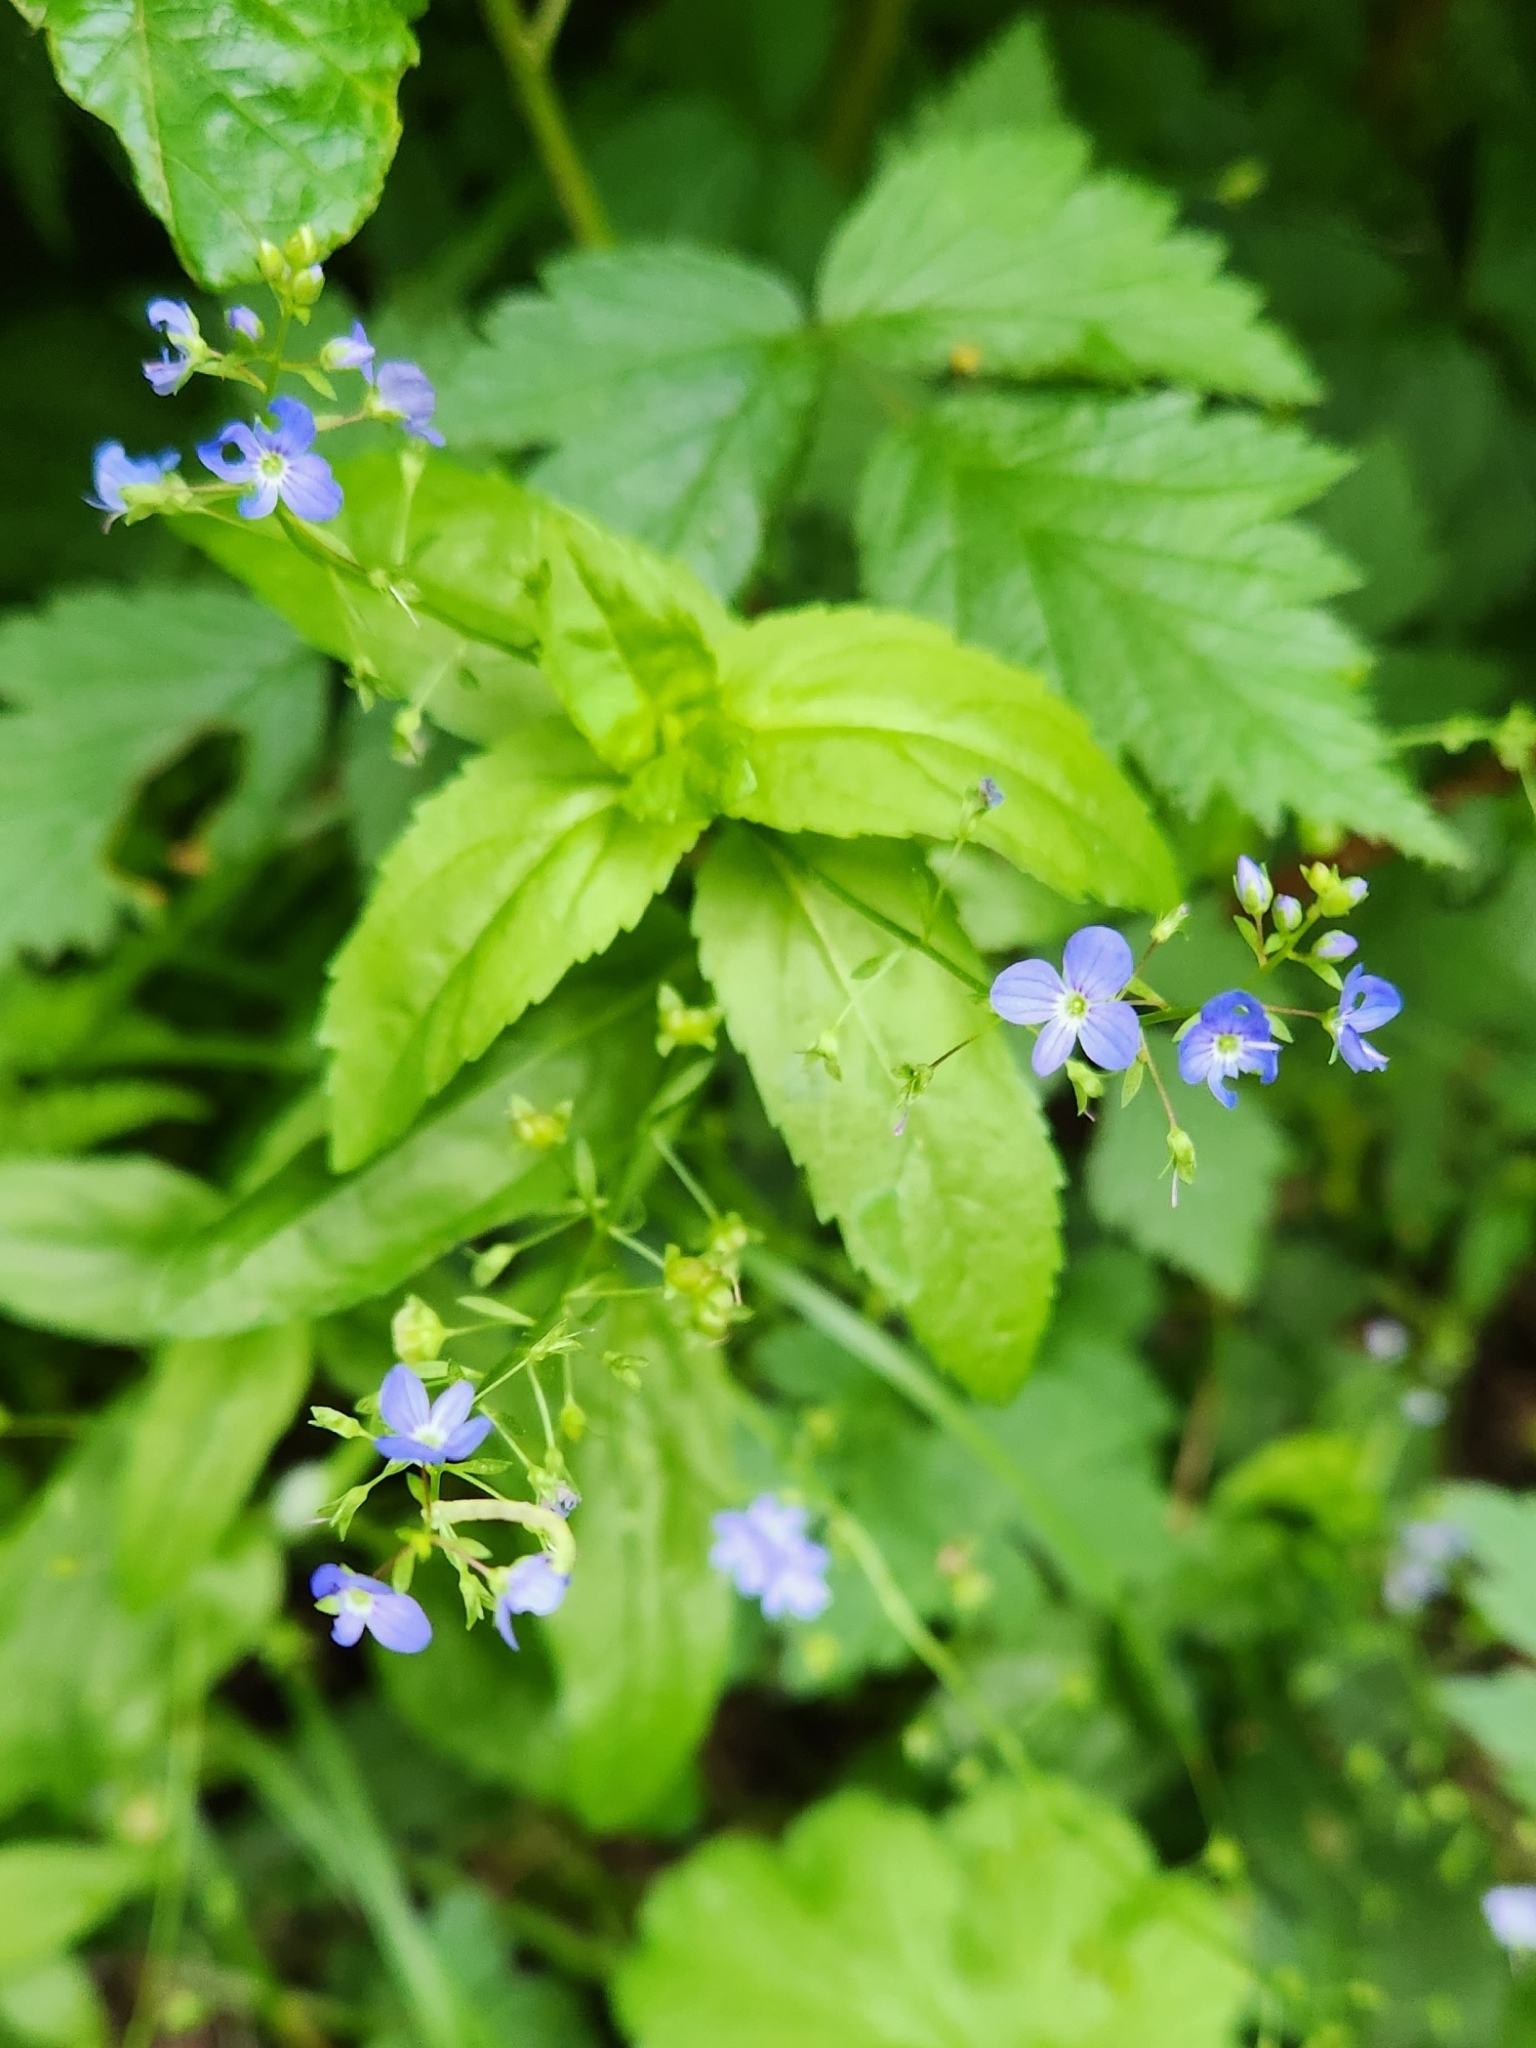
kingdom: Plantae
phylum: Tracheophyta
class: Magnoliopsida
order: Lamiales
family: Plantaginaceae
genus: Veronica
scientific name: Veronica americana
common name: American brooklime
